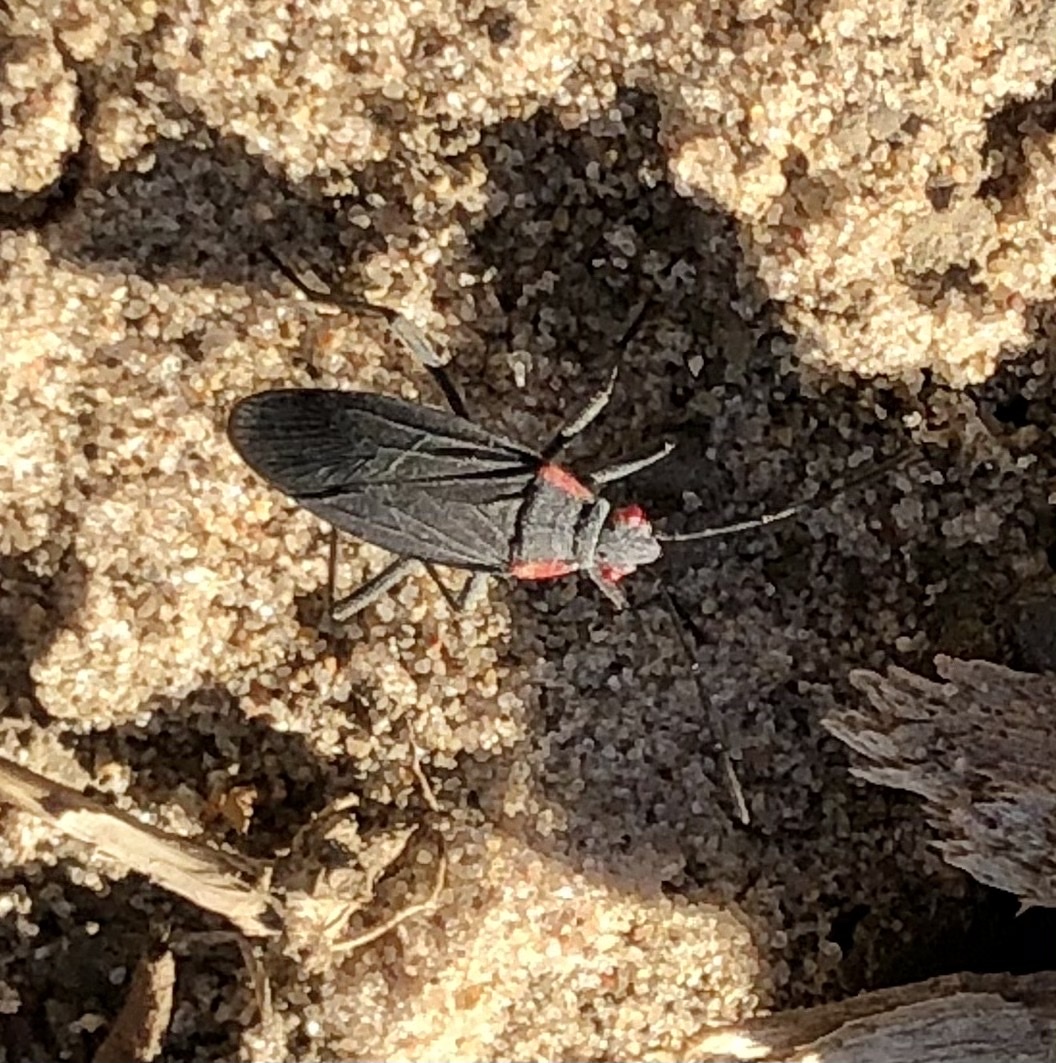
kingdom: Animalia
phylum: Arthropoda
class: Insecta
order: Hemiptera
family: Rhopalidae
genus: Jadera
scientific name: Jadera haematoloma
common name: Red-shouldered bug
